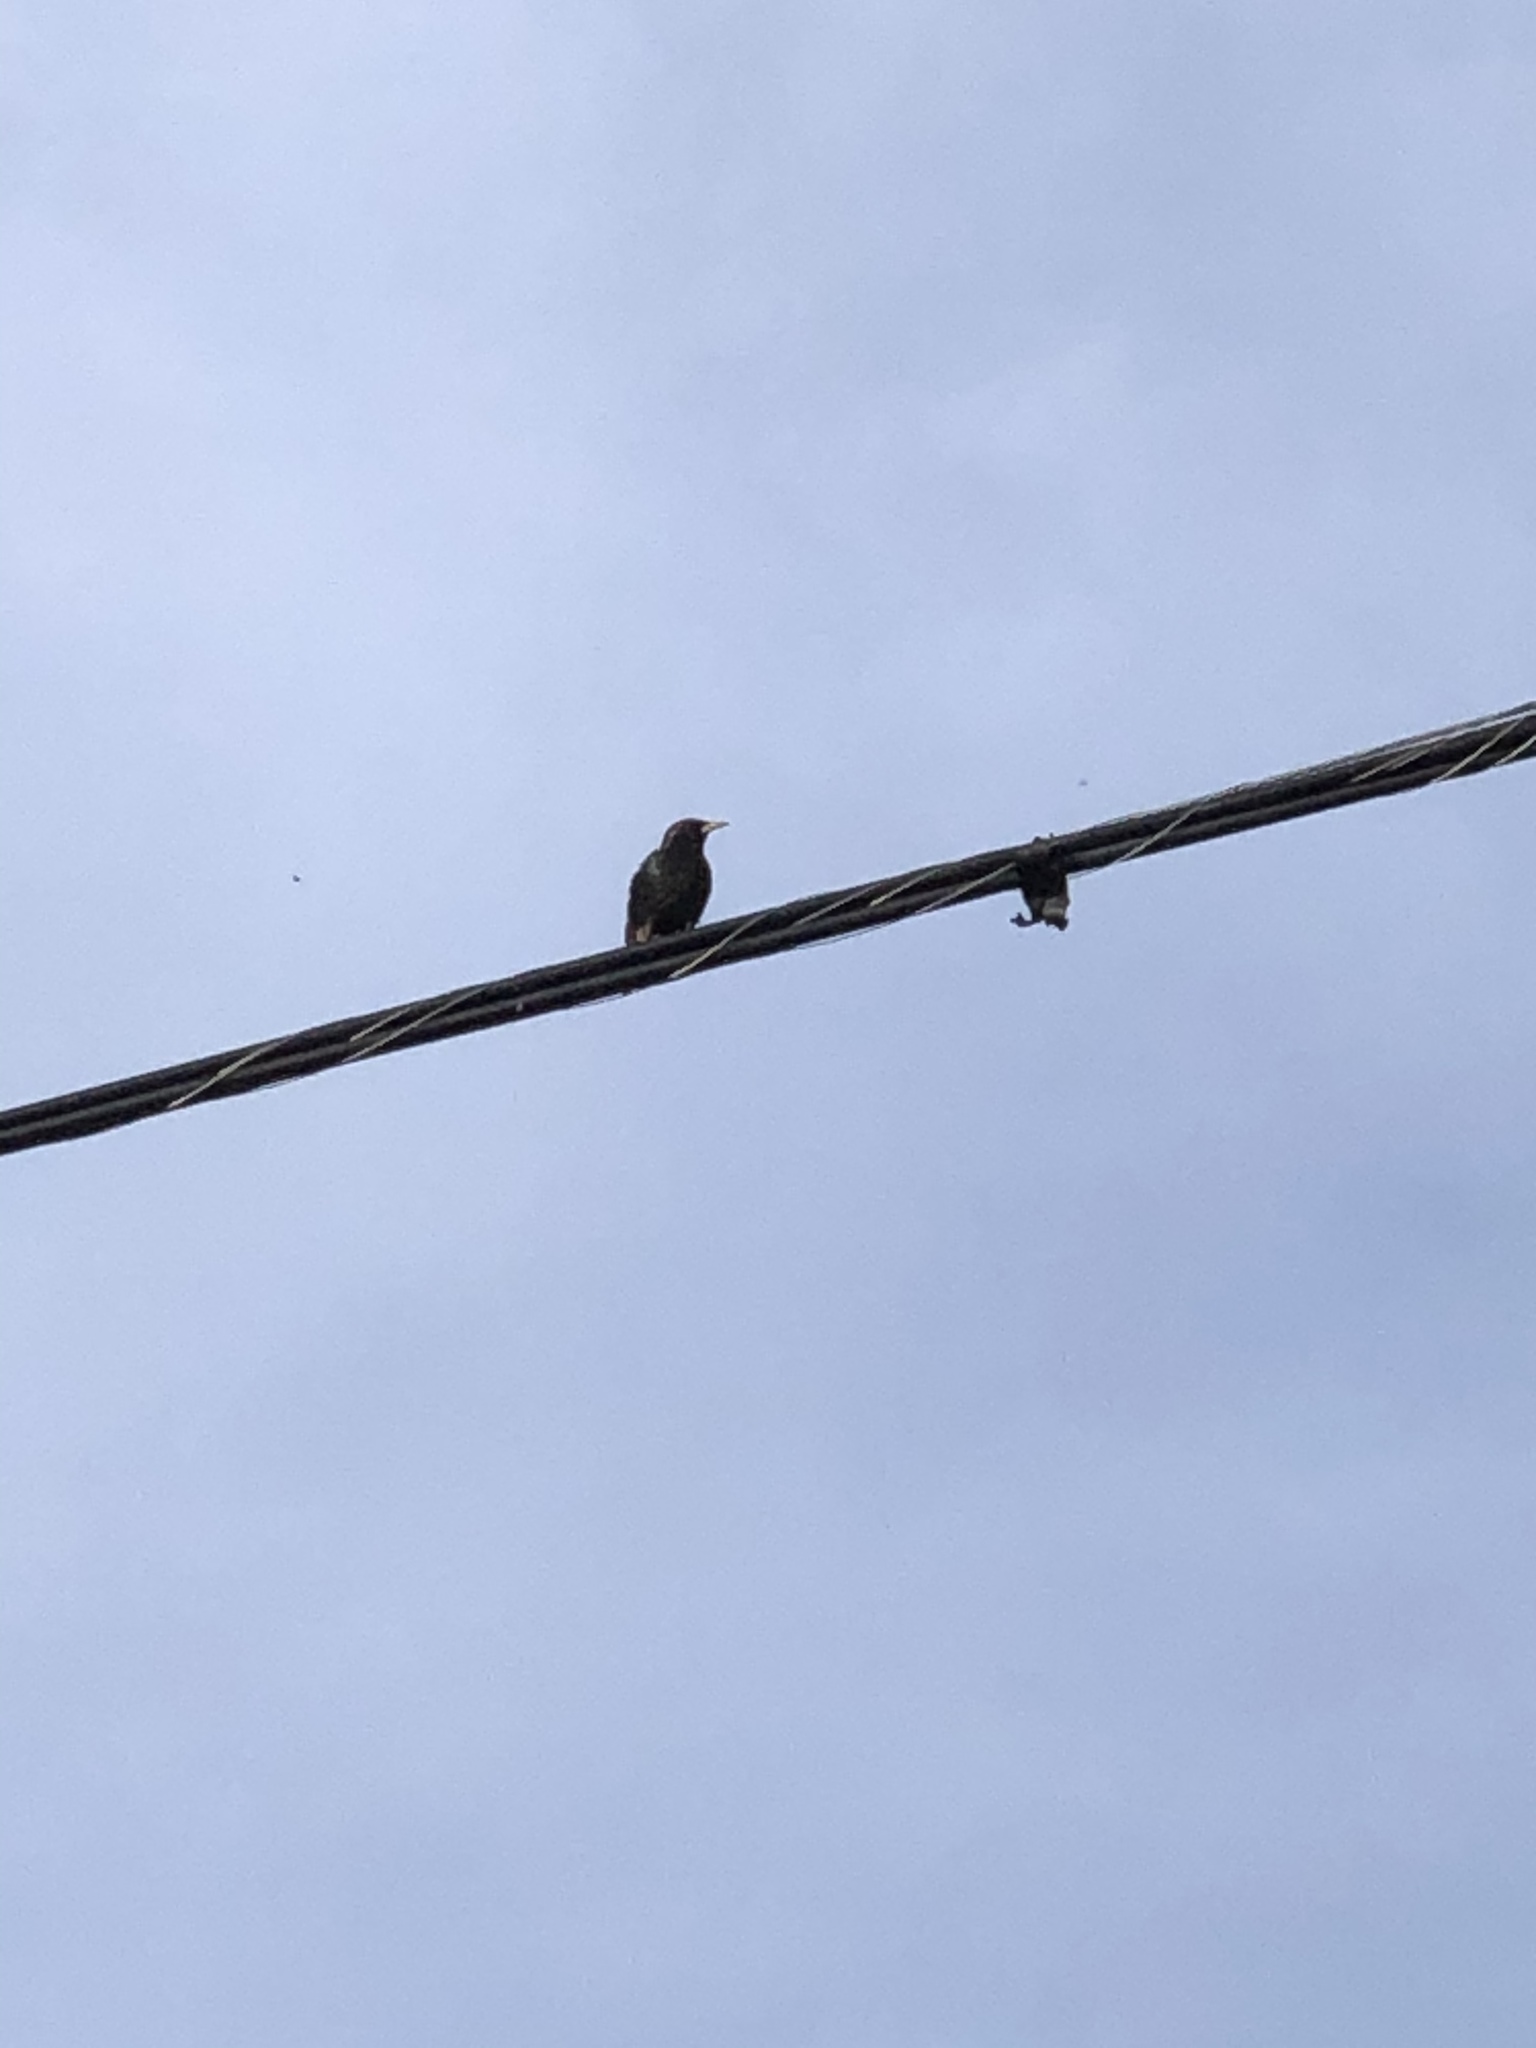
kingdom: Animalia
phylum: Chordata
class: Aves
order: Passeriformes
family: Sturnidae
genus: Sturnus
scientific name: Sturnus vulgaris
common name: Common starling
